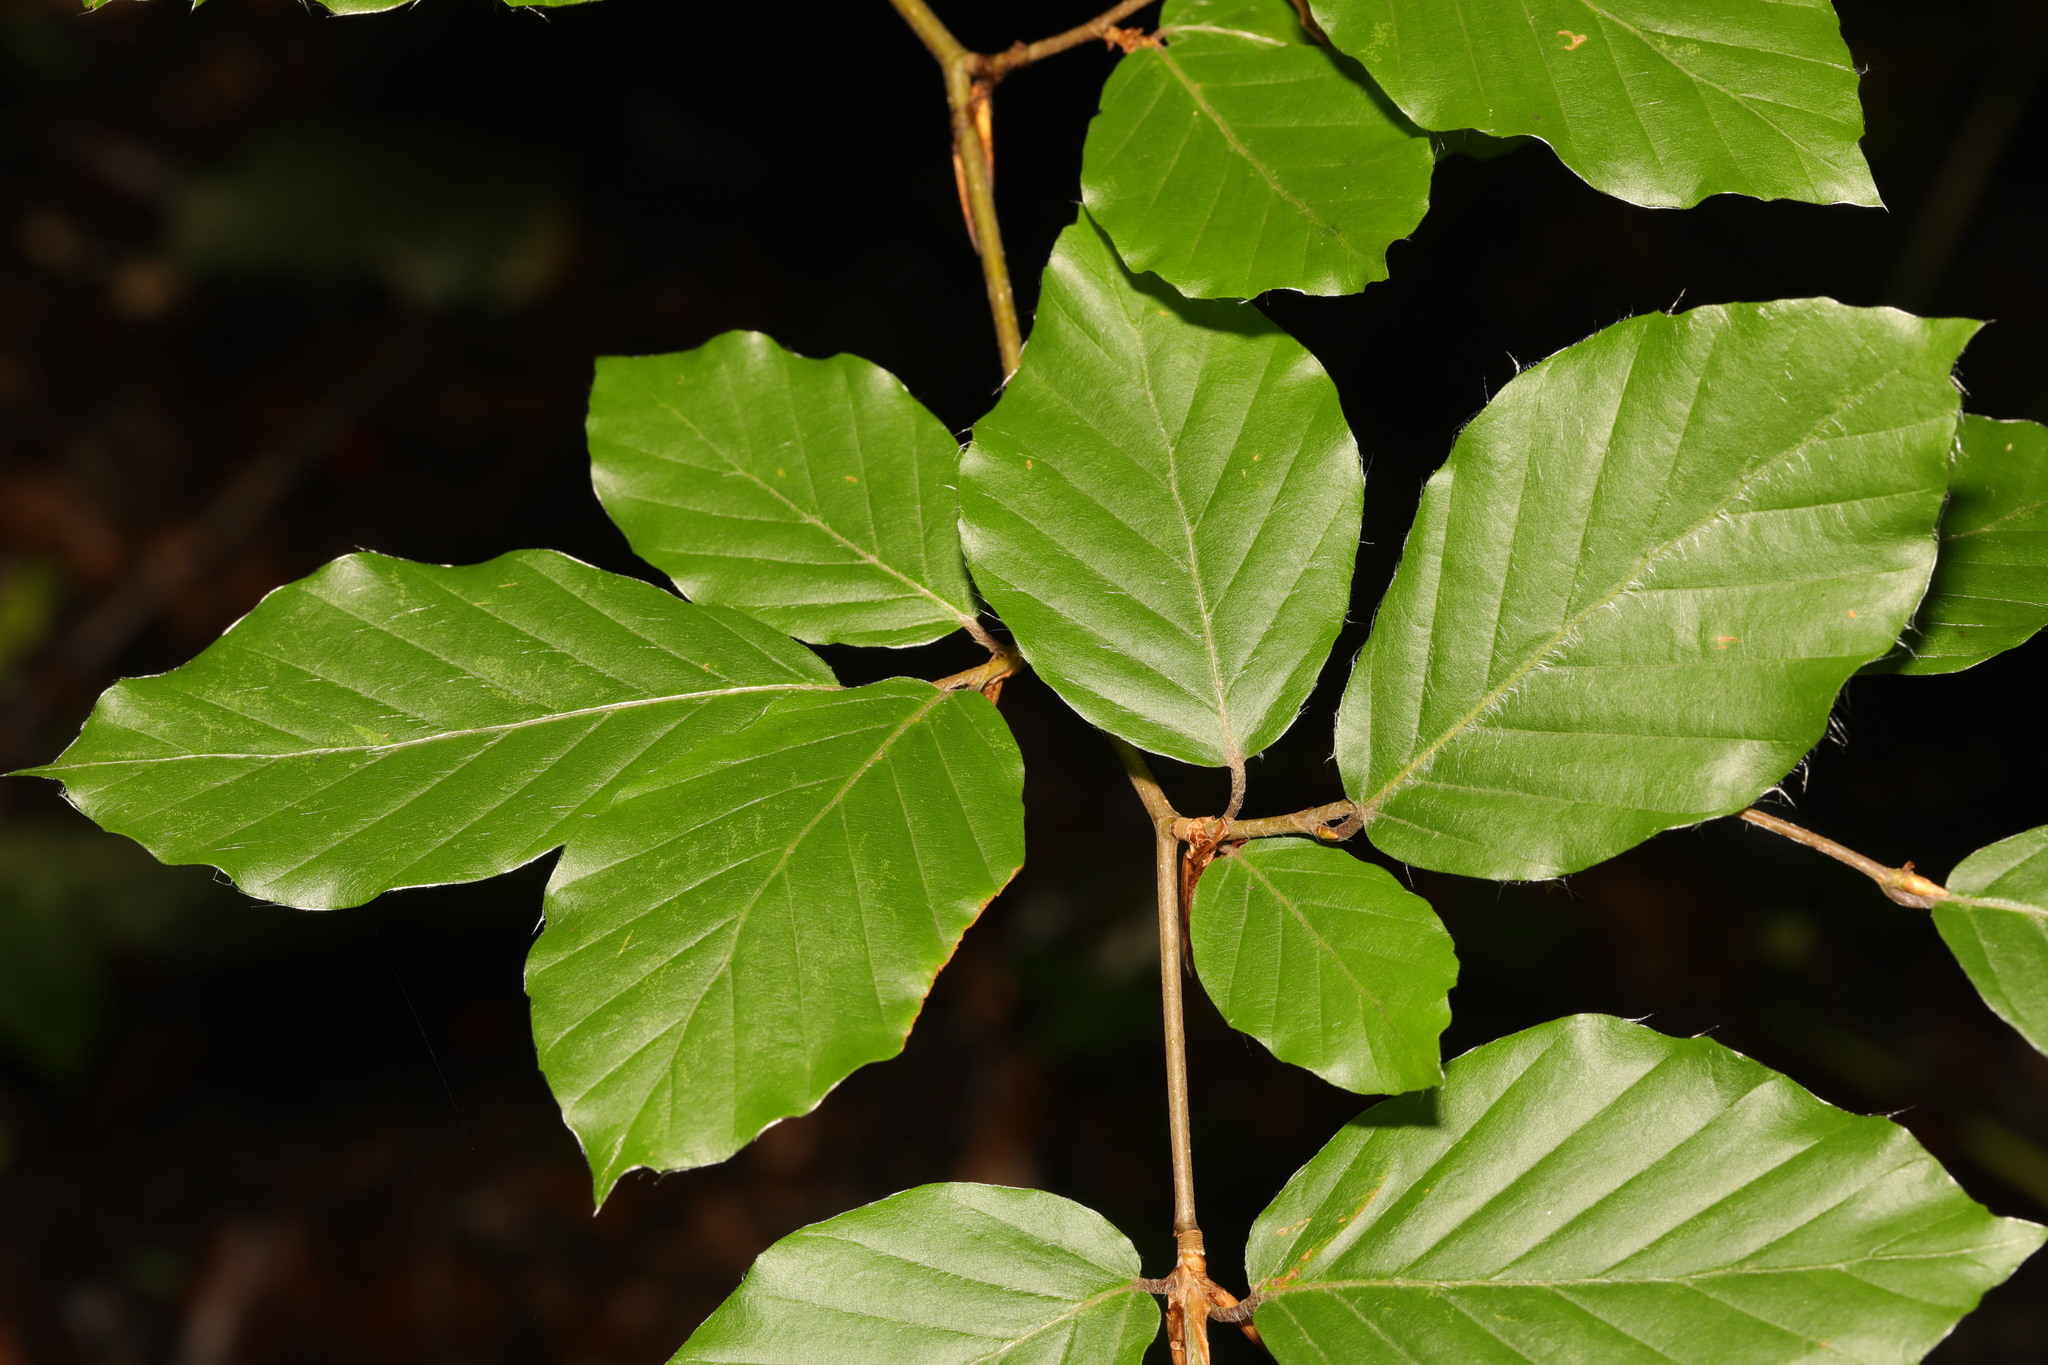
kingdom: Plantae
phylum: Tracheophyta
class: Magnoliopsida
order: Fagales
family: Fagaceae
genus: Fagus
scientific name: Fagus sylvatica
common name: Beech
